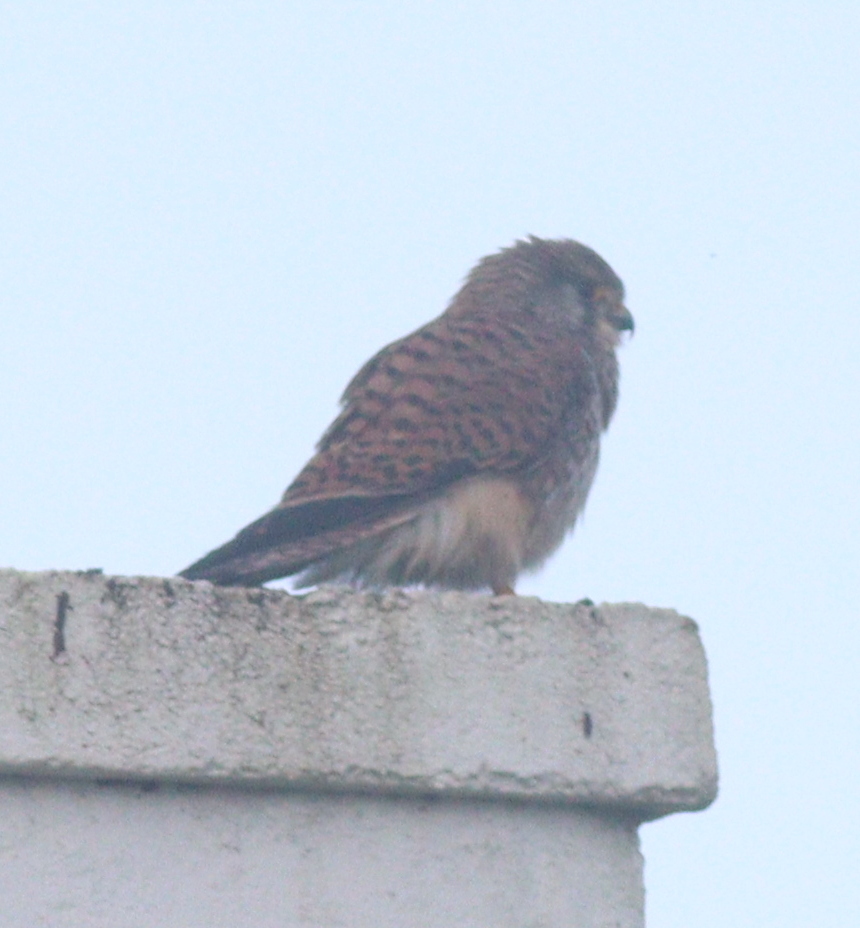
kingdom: Animalia
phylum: Chordata
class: Aves
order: Falconiformes
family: Falconidae
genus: Falco
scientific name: Falco tinnunculus
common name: Common kestrel
